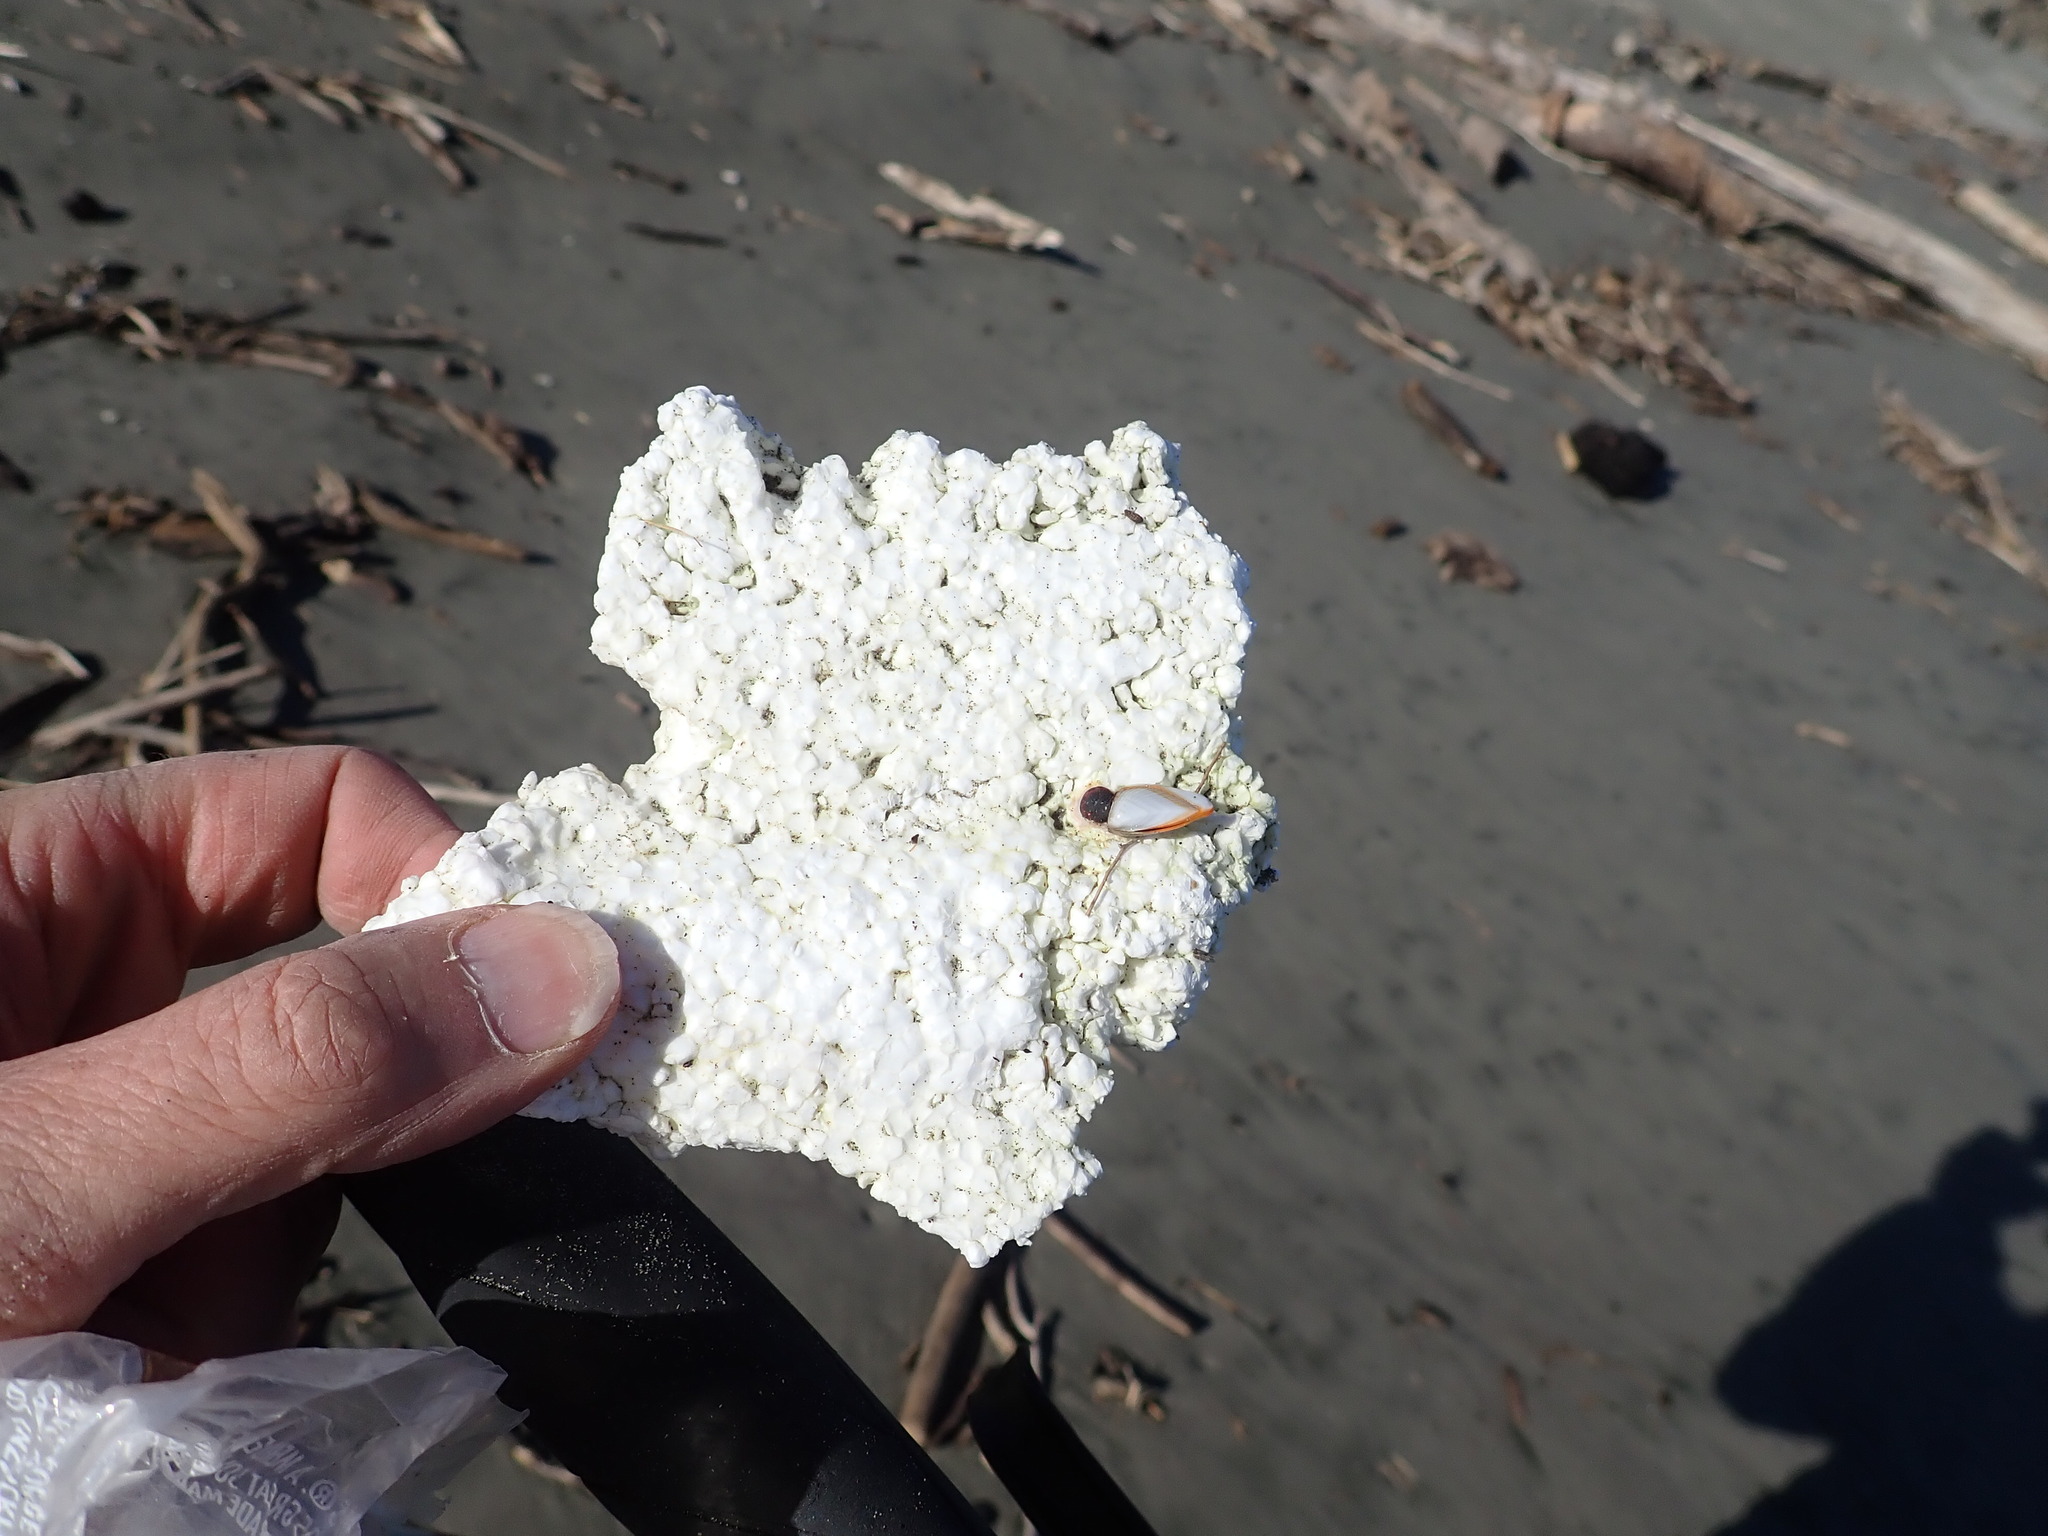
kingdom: Animalia
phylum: Arthropoda
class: Maxillopoda
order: Pedunculata
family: Lepadidae
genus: Lepas
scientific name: Lepas anatifera
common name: Common goose barnacle
